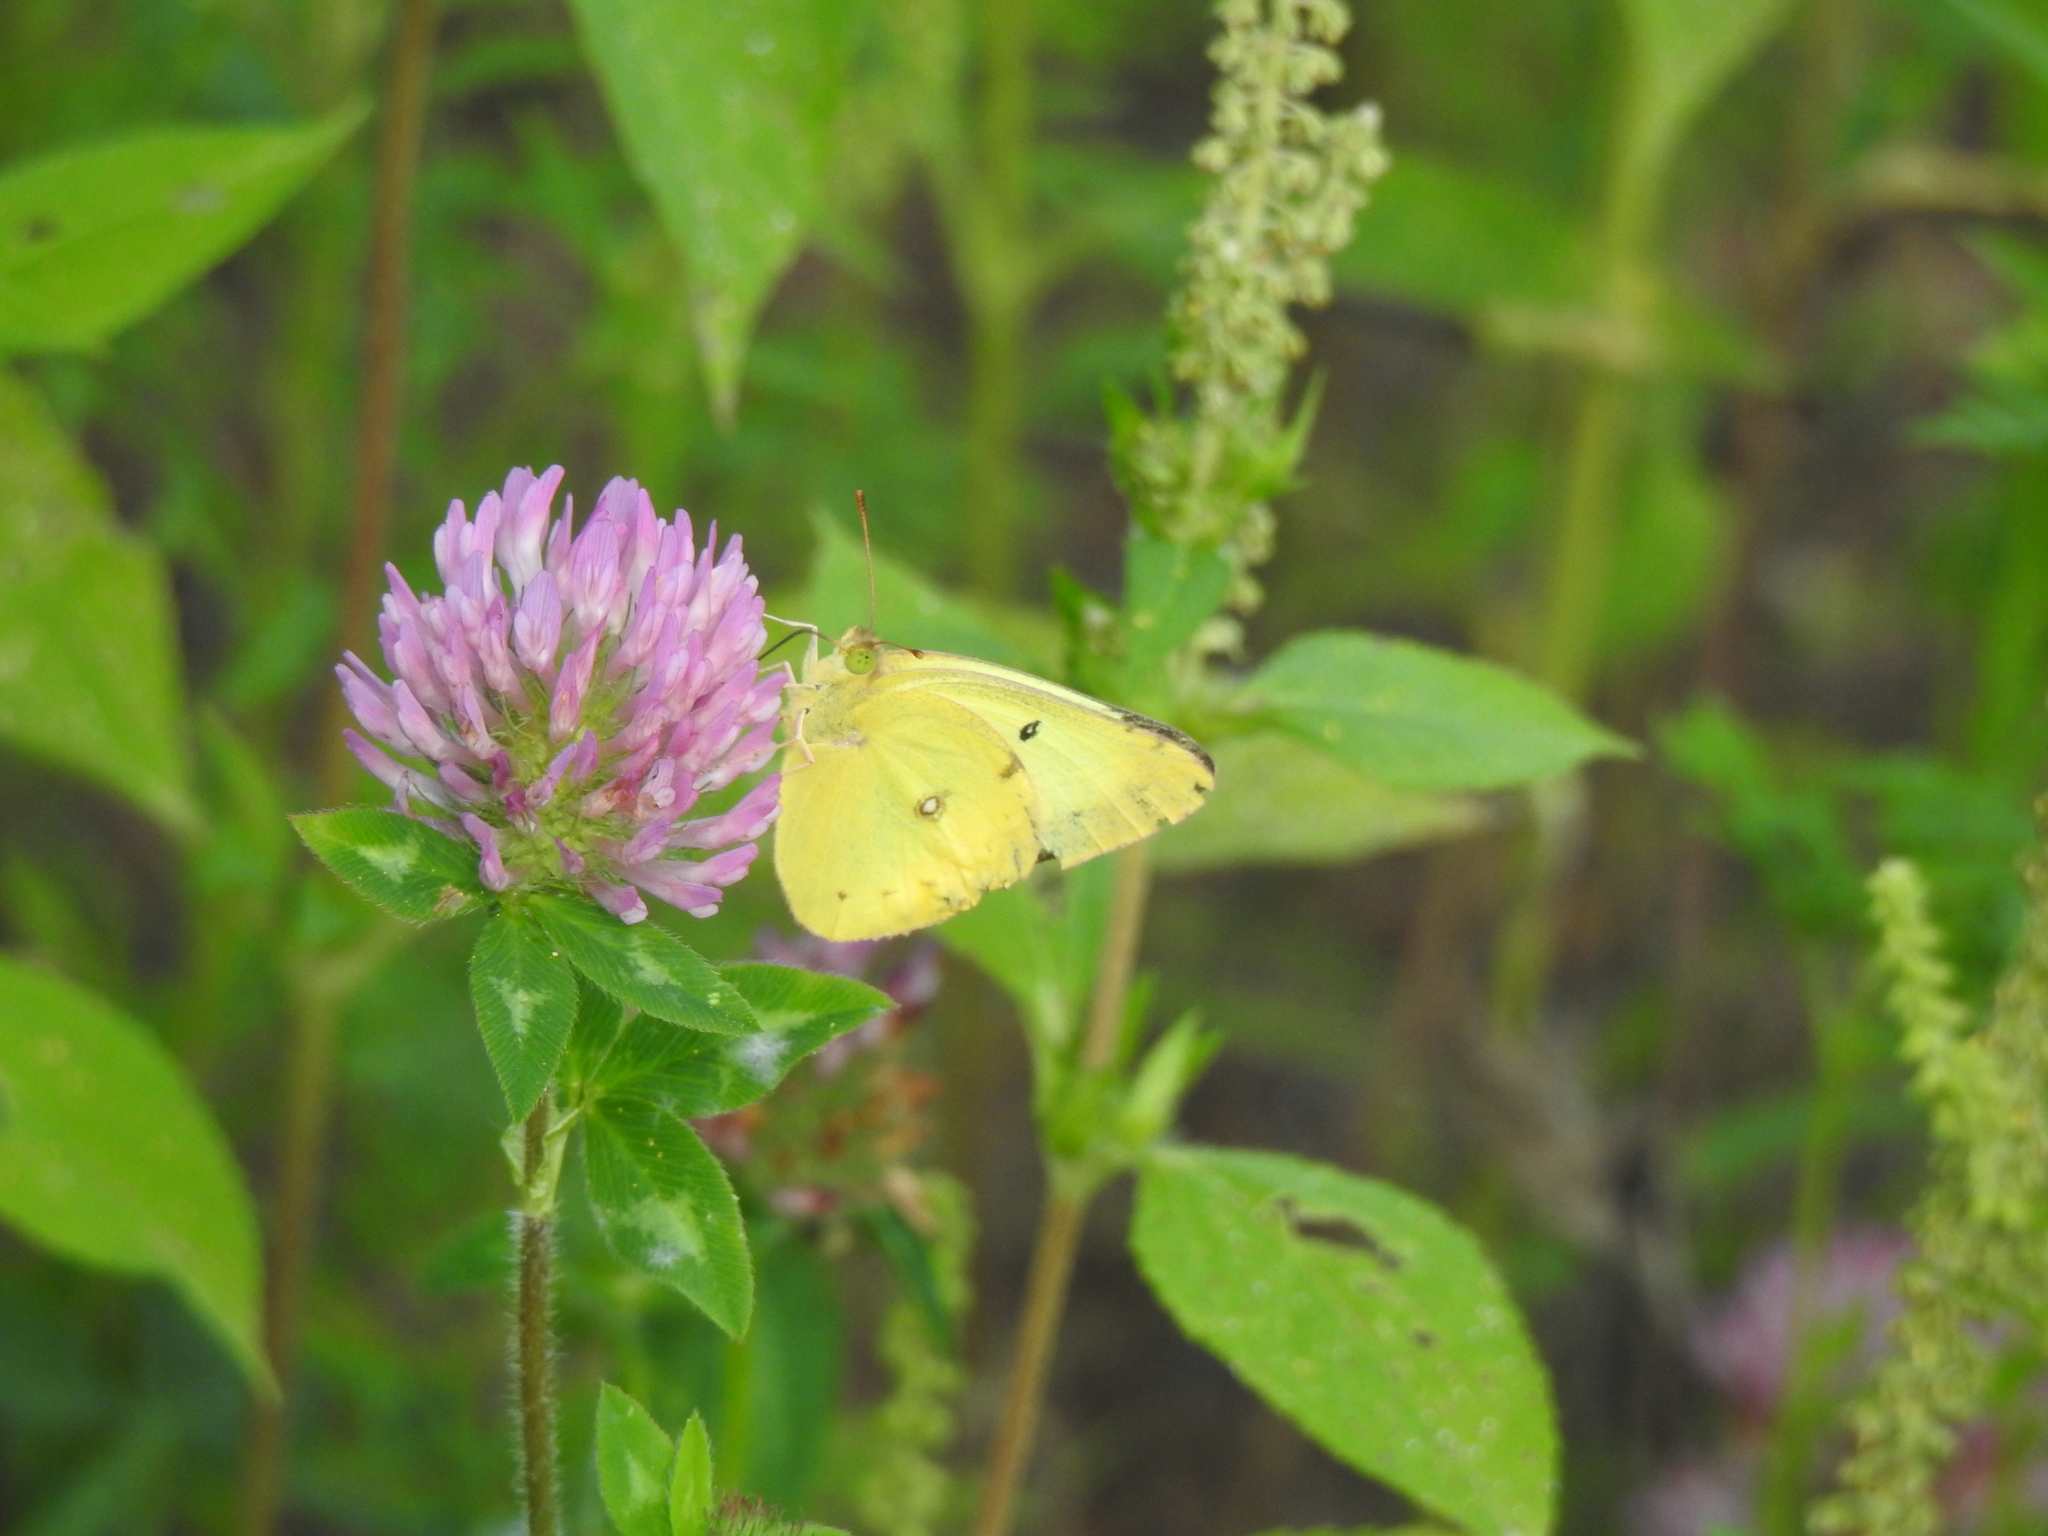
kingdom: Animalia
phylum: Arthropoda
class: Insecta
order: Lepidoptera
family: Pieridae
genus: Colias
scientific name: Colias philodice
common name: Clouded sulphur
